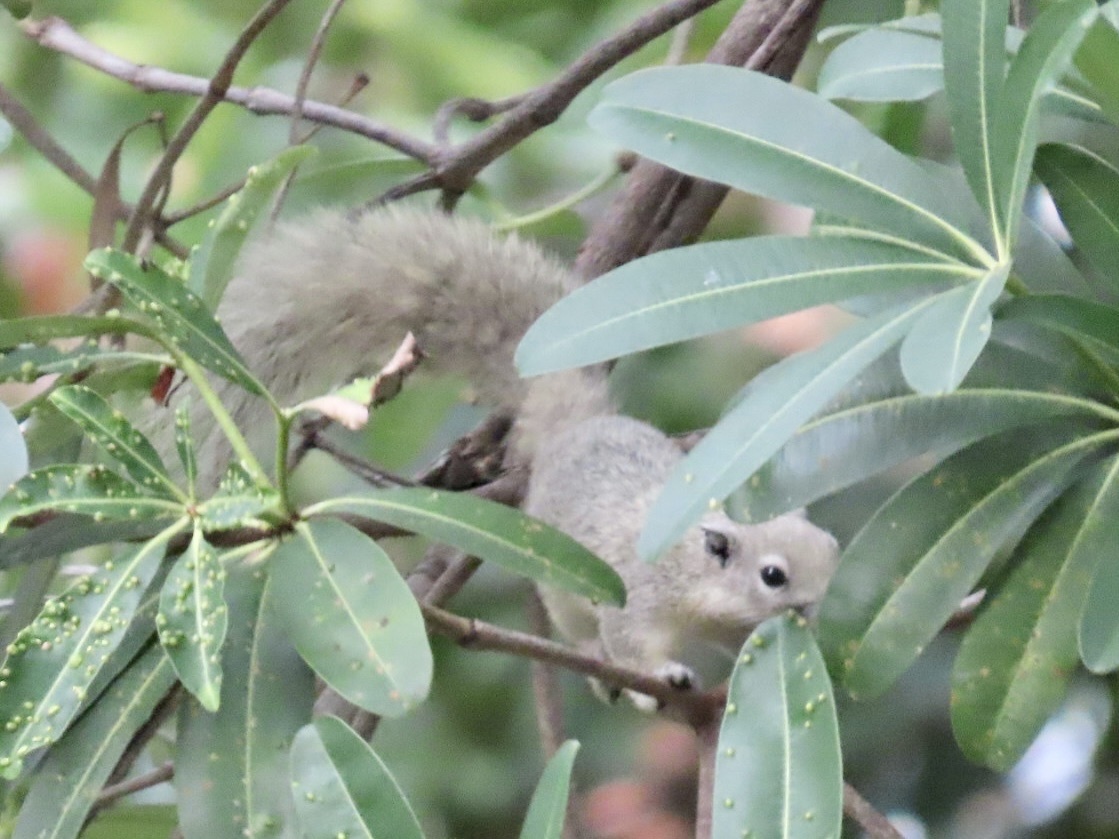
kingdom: Animalia
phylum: Chordata
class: Mammalia
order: Rodentia
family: Sciuridae
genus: Callosciurus
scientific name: Callosciurus finlaysonii
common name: Finlayson's squirrel
